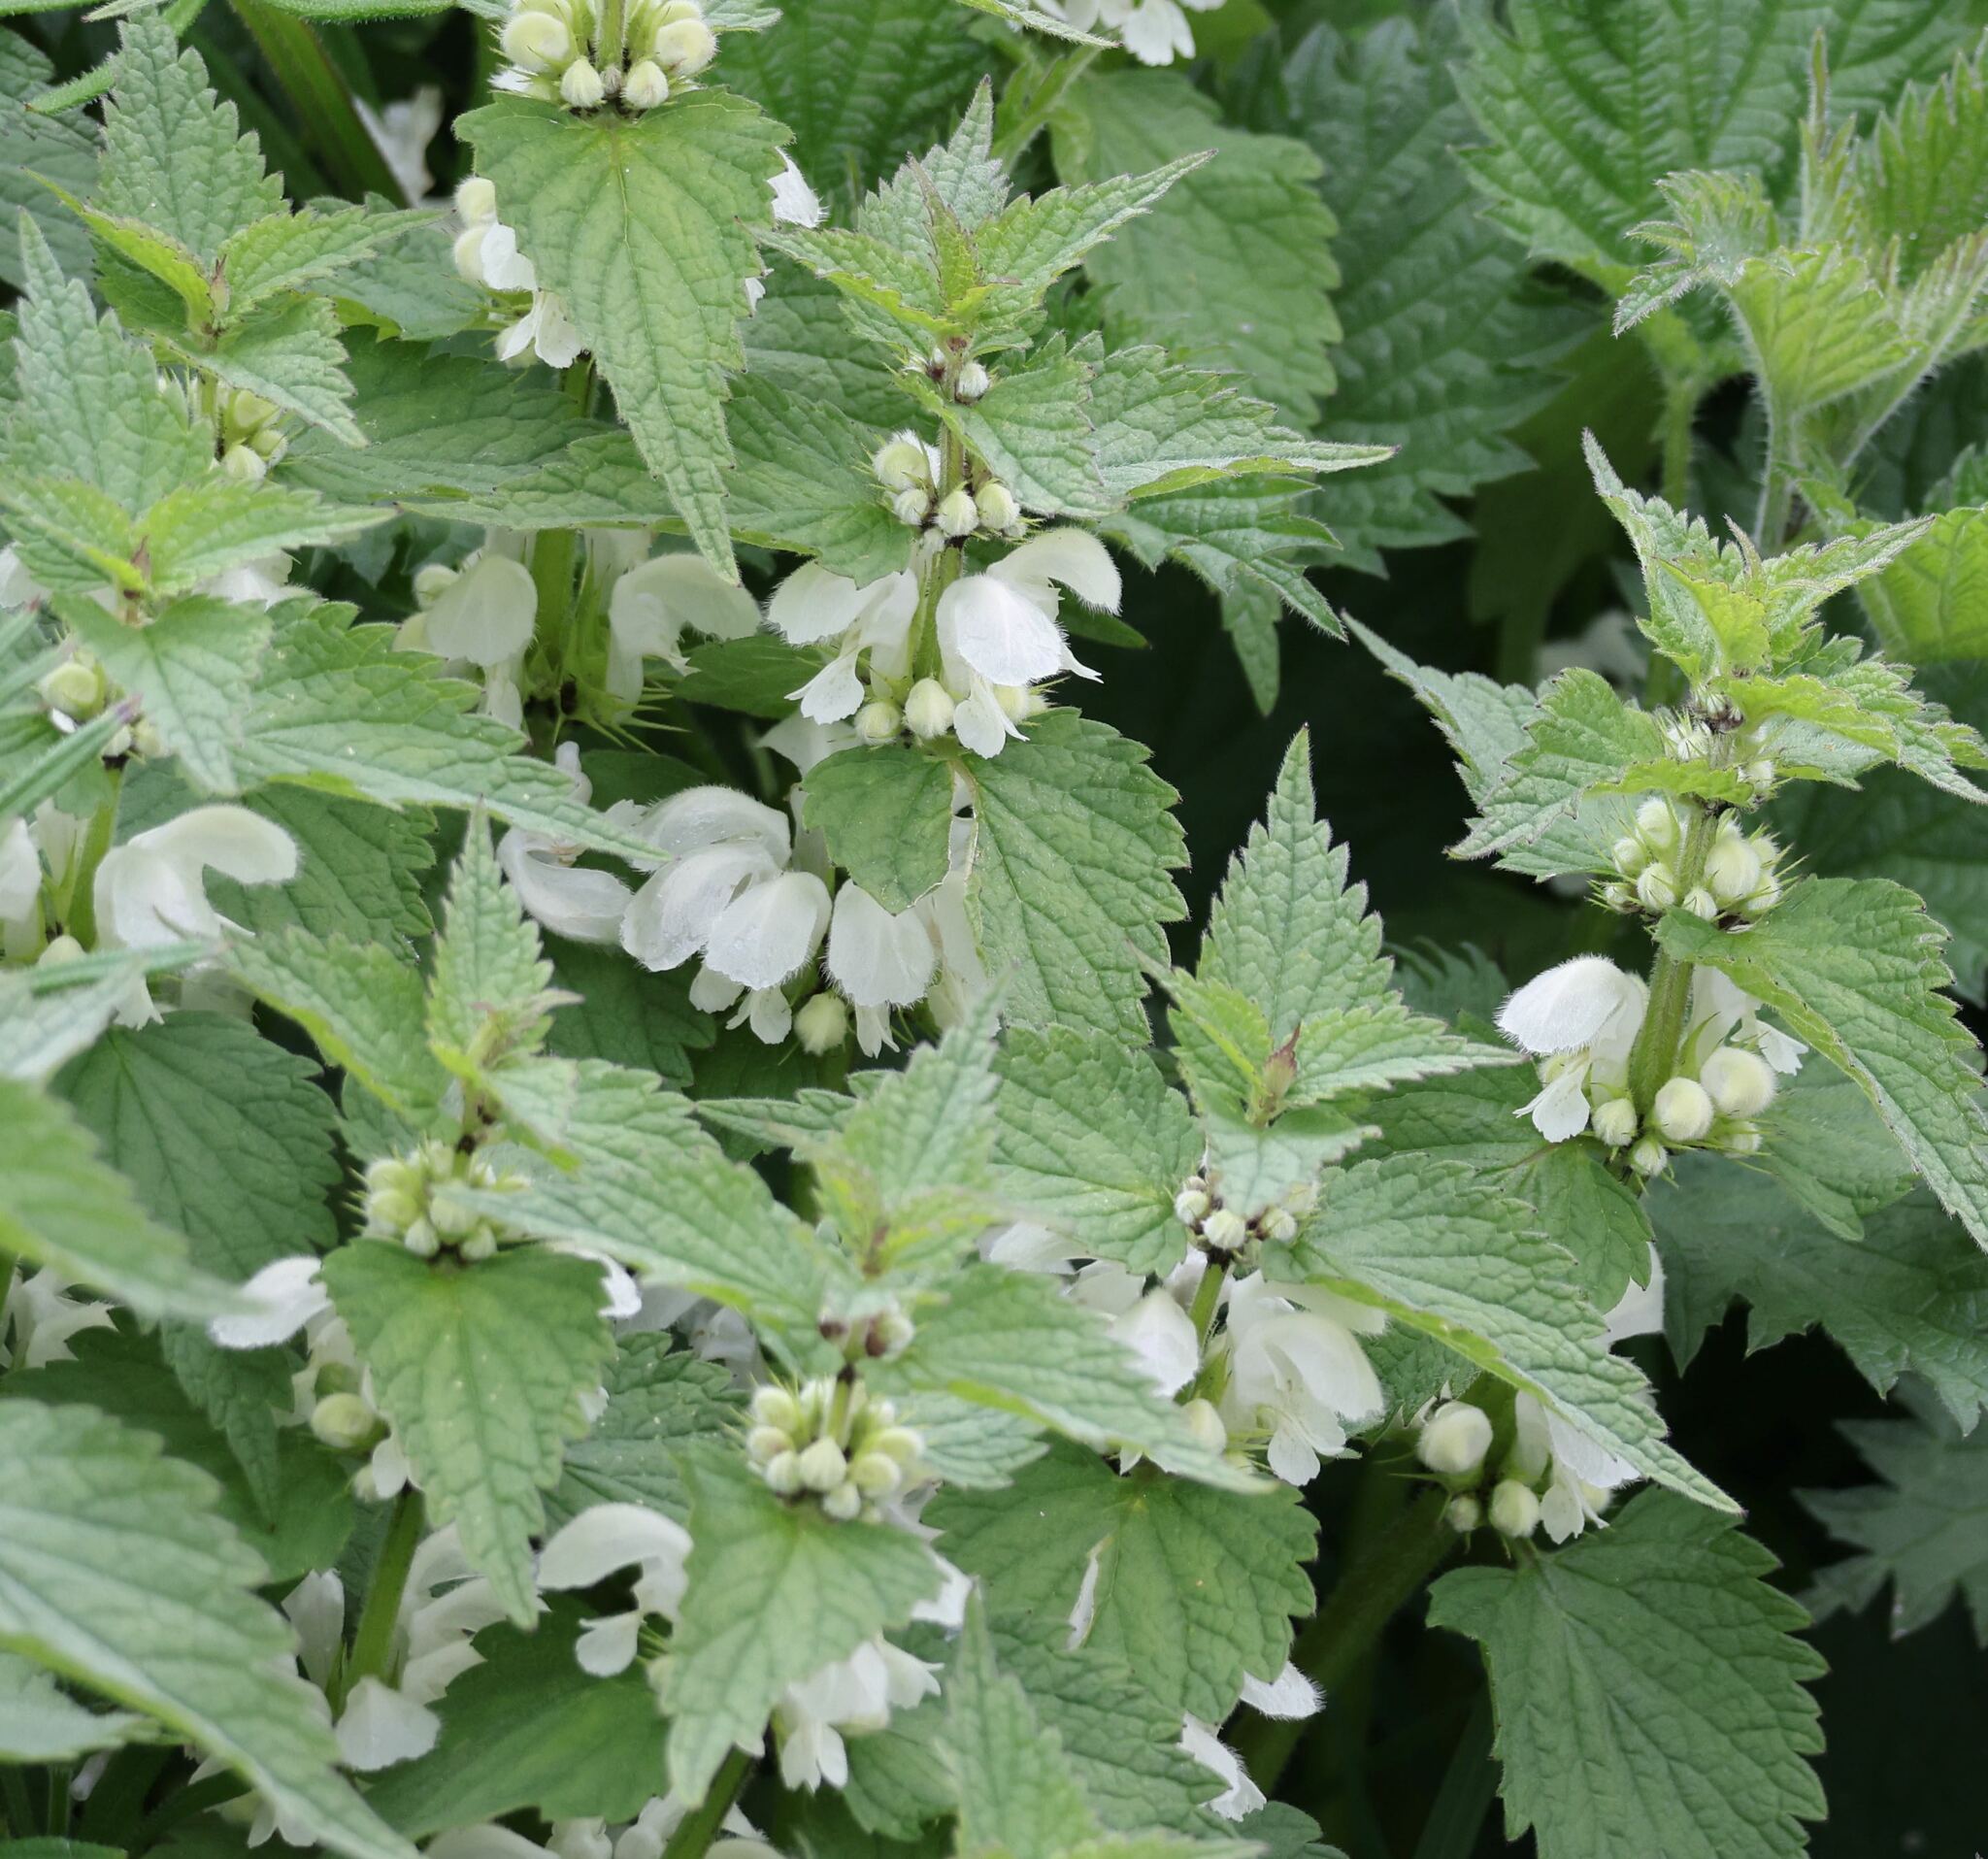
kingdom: Plantae
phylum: Tracheophyta
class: Magnoliopsida
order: Lamiales
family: Lamiaceae
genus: Lamium
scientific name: Lamium album
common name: White dead-nettle
